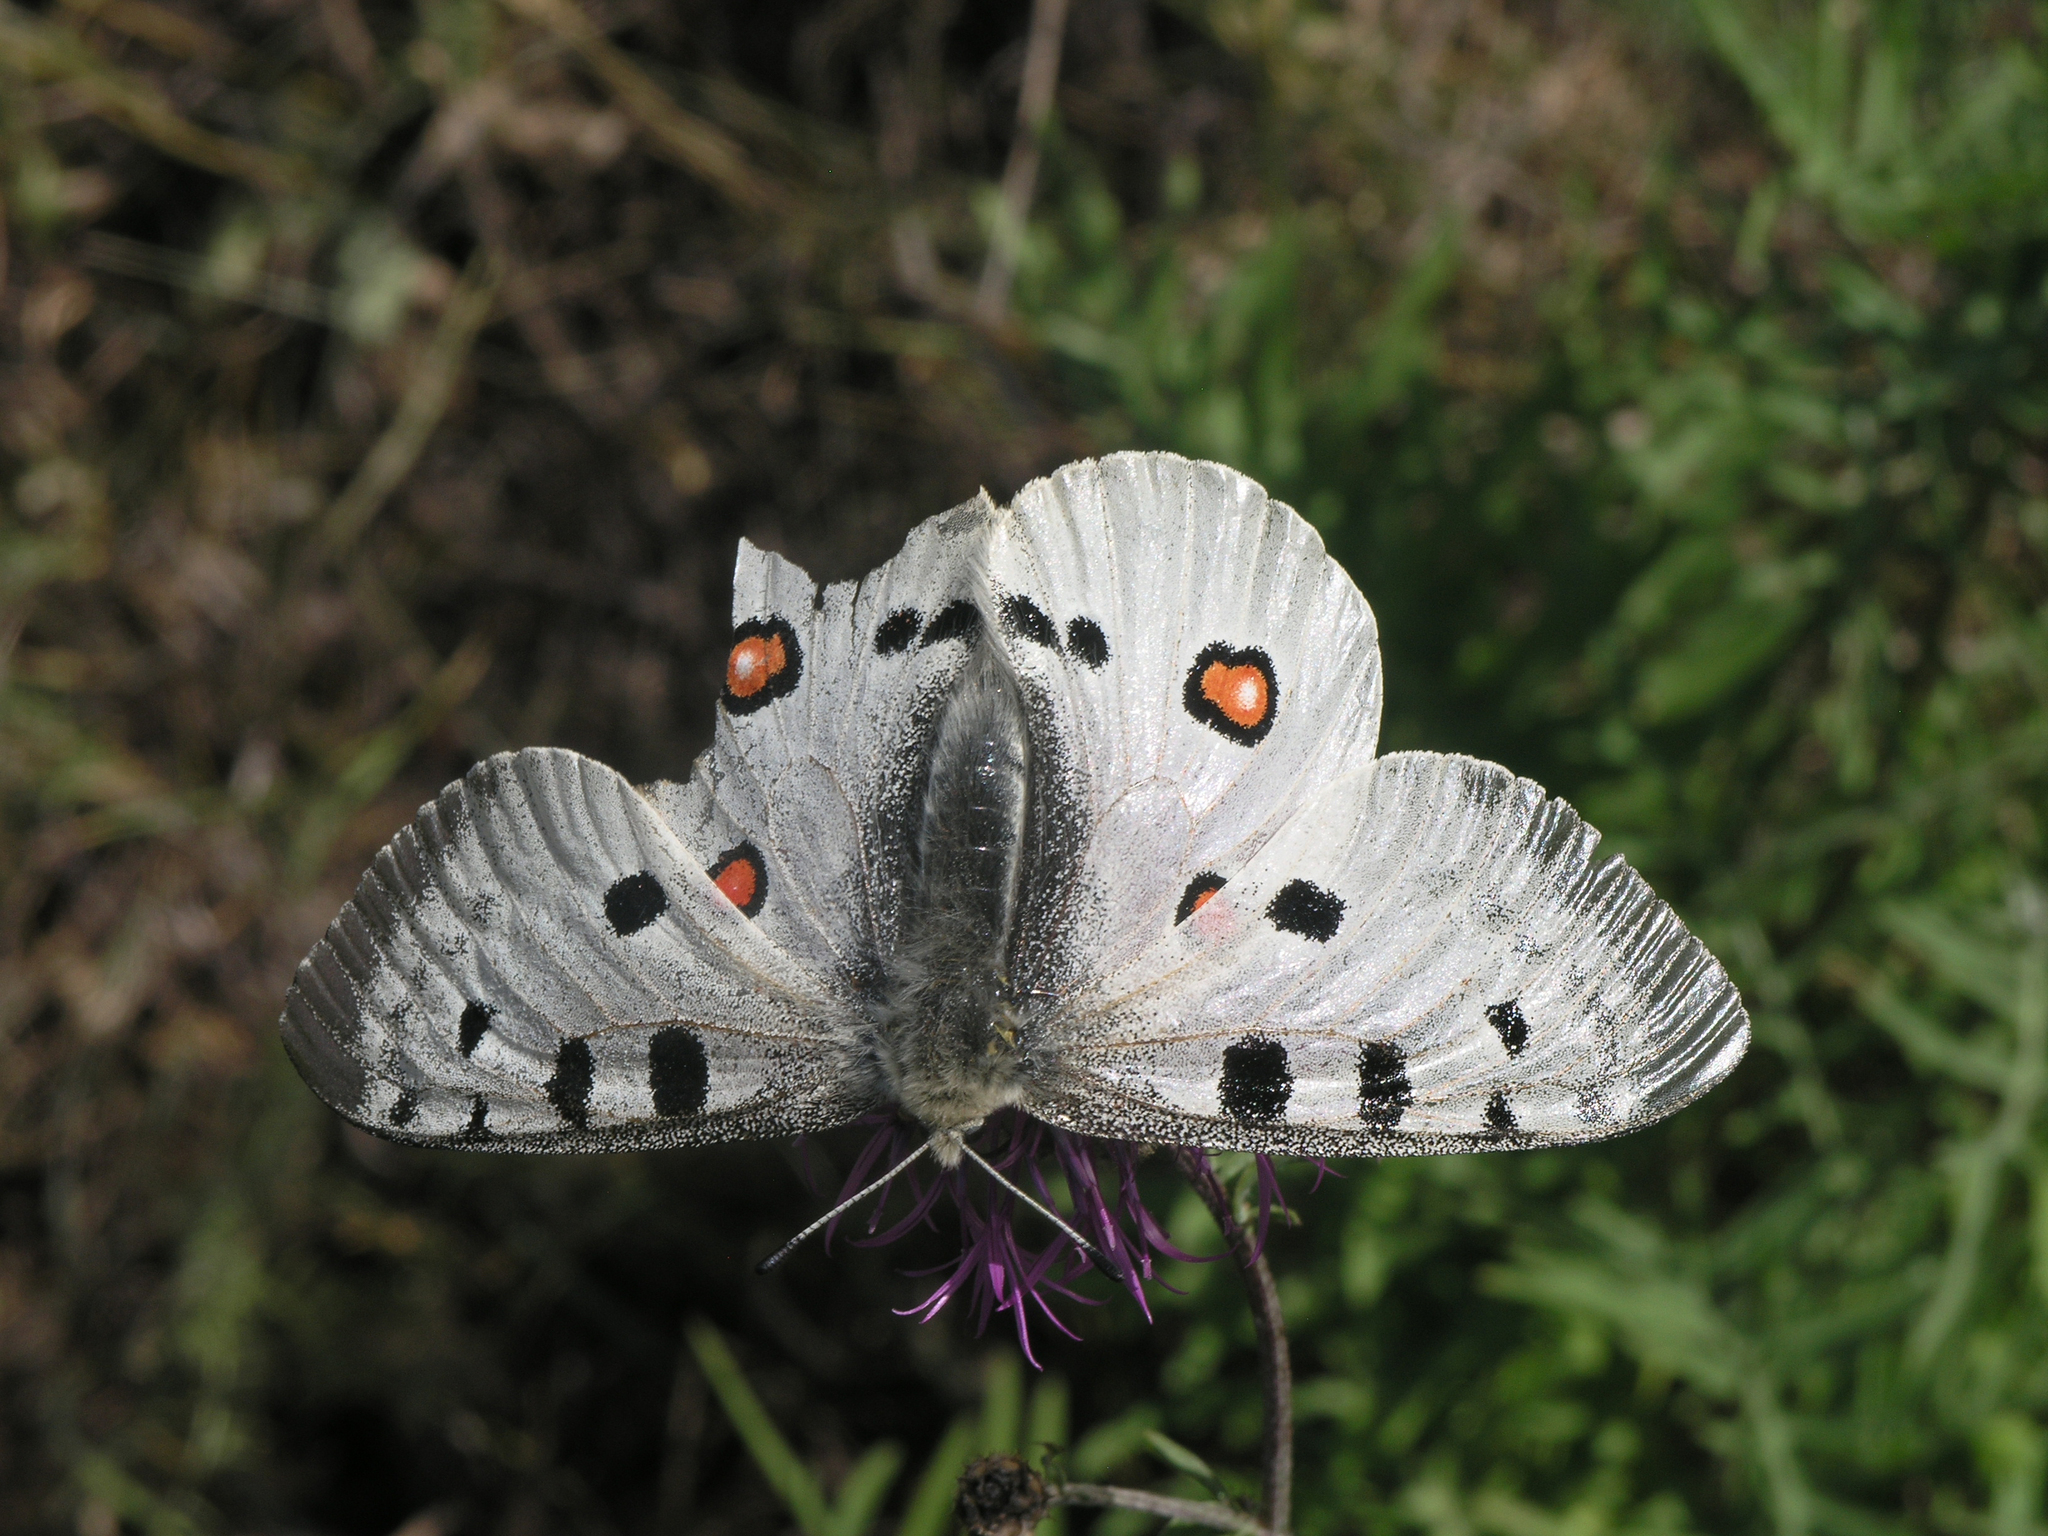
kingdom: Animalia
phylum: Arthropoda
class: Insecta
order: Lepidoptera
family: Papilionidae
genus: Parnassius
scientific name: Parnassius apollo
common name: Apollo
